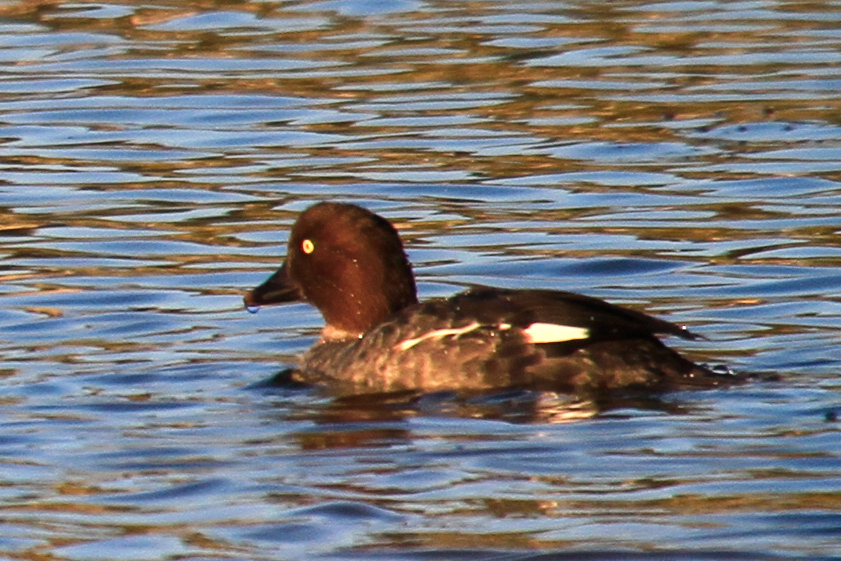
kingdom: Animalia
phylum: Chordata
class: Aves
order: Anseriformes
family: Anatidae
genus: Bucephala
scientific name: Bucephala clangula
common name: Common goldeneye
